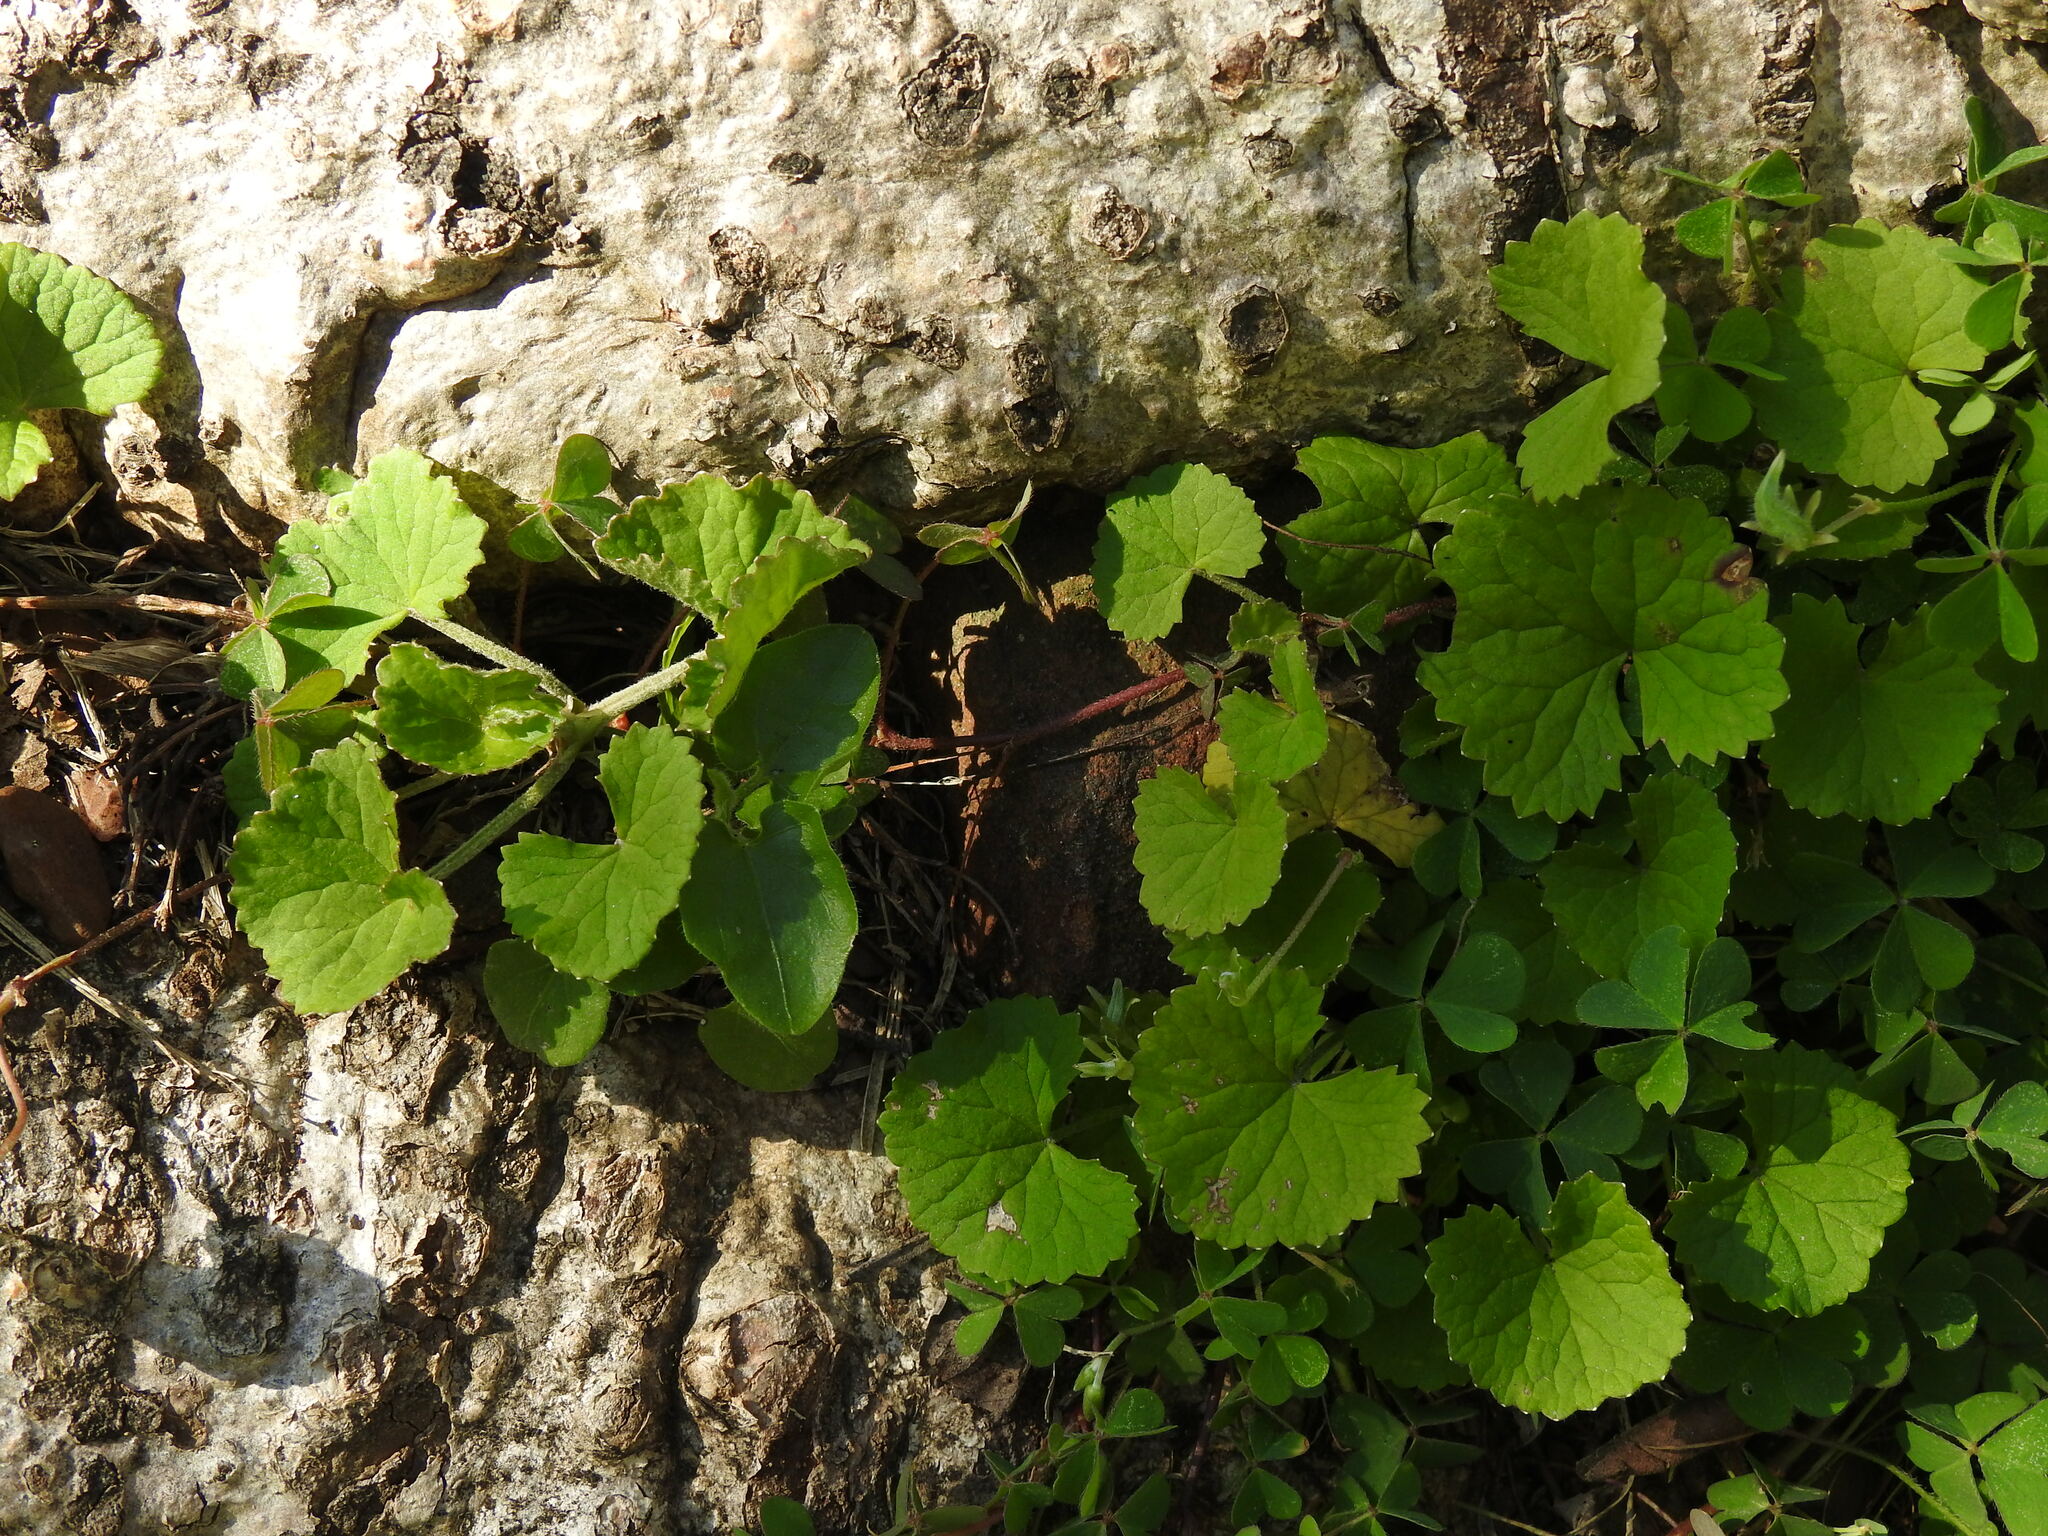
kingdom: Plantae
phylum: Tracheophyta
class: Magnoliopsida
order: Apiales
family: Apiaceae
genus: Centella
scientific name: Centella asiatica
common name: Spadeleaf
